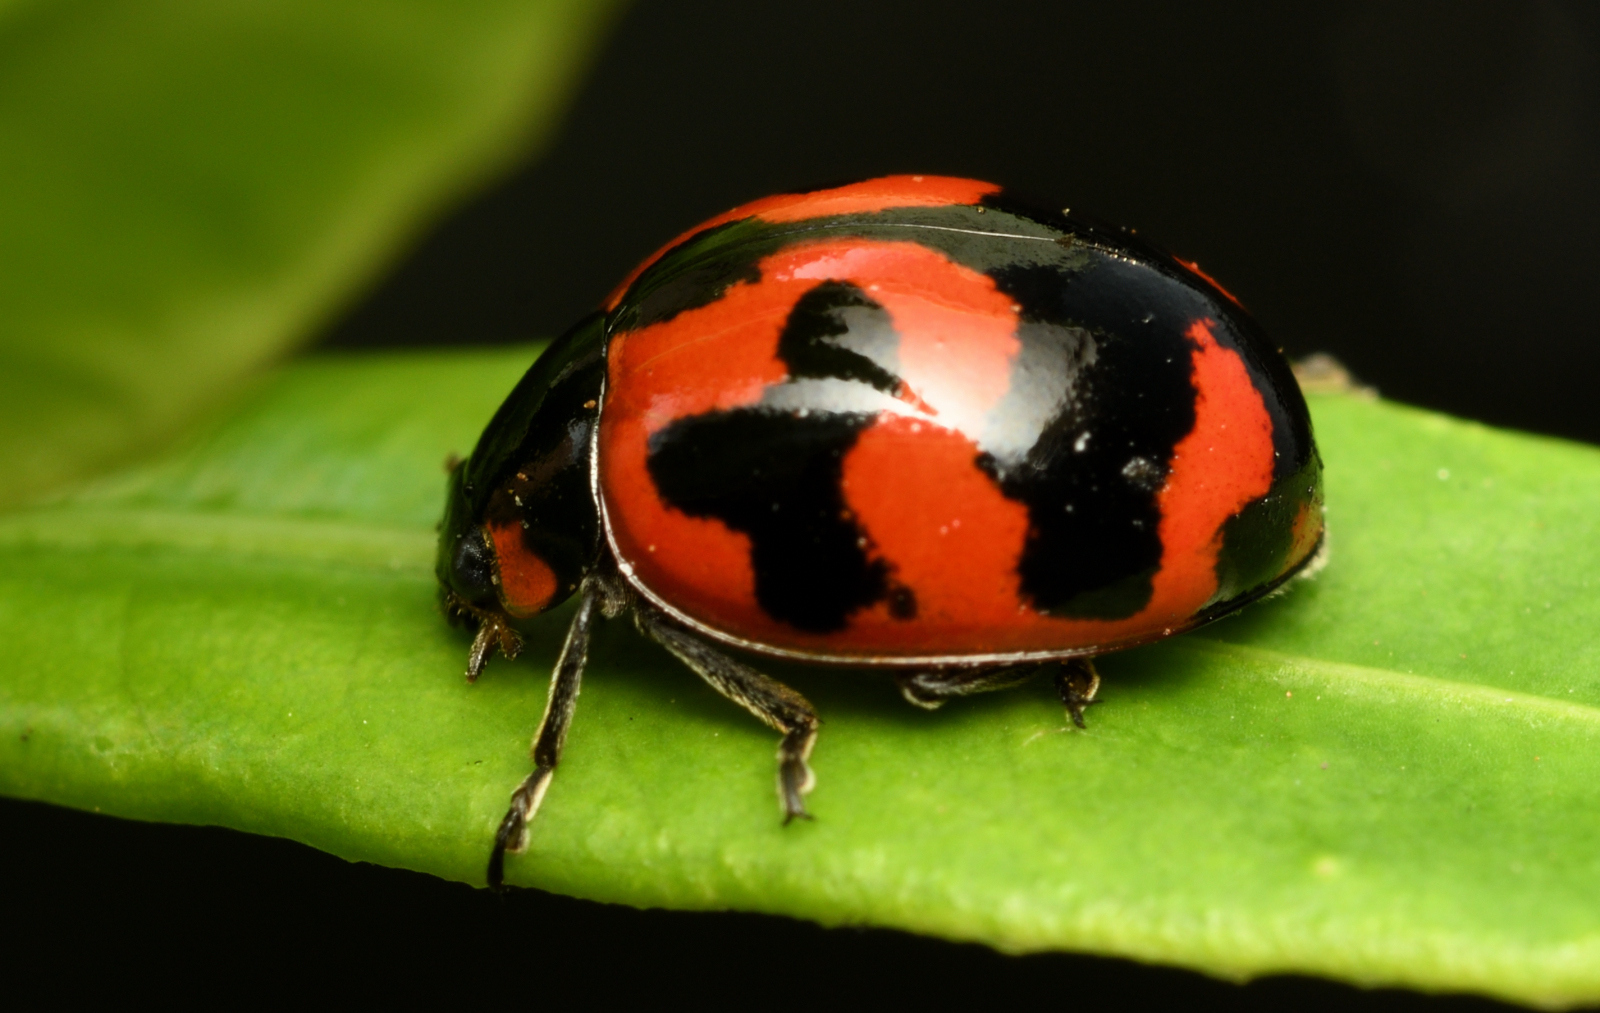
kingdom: Animalia
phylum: Arthropoda
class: Insecta
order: Coleoptera
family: Coccinellidae
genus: Coccinella
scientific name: Coccinella transversalis
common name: Transverse lady beetle
